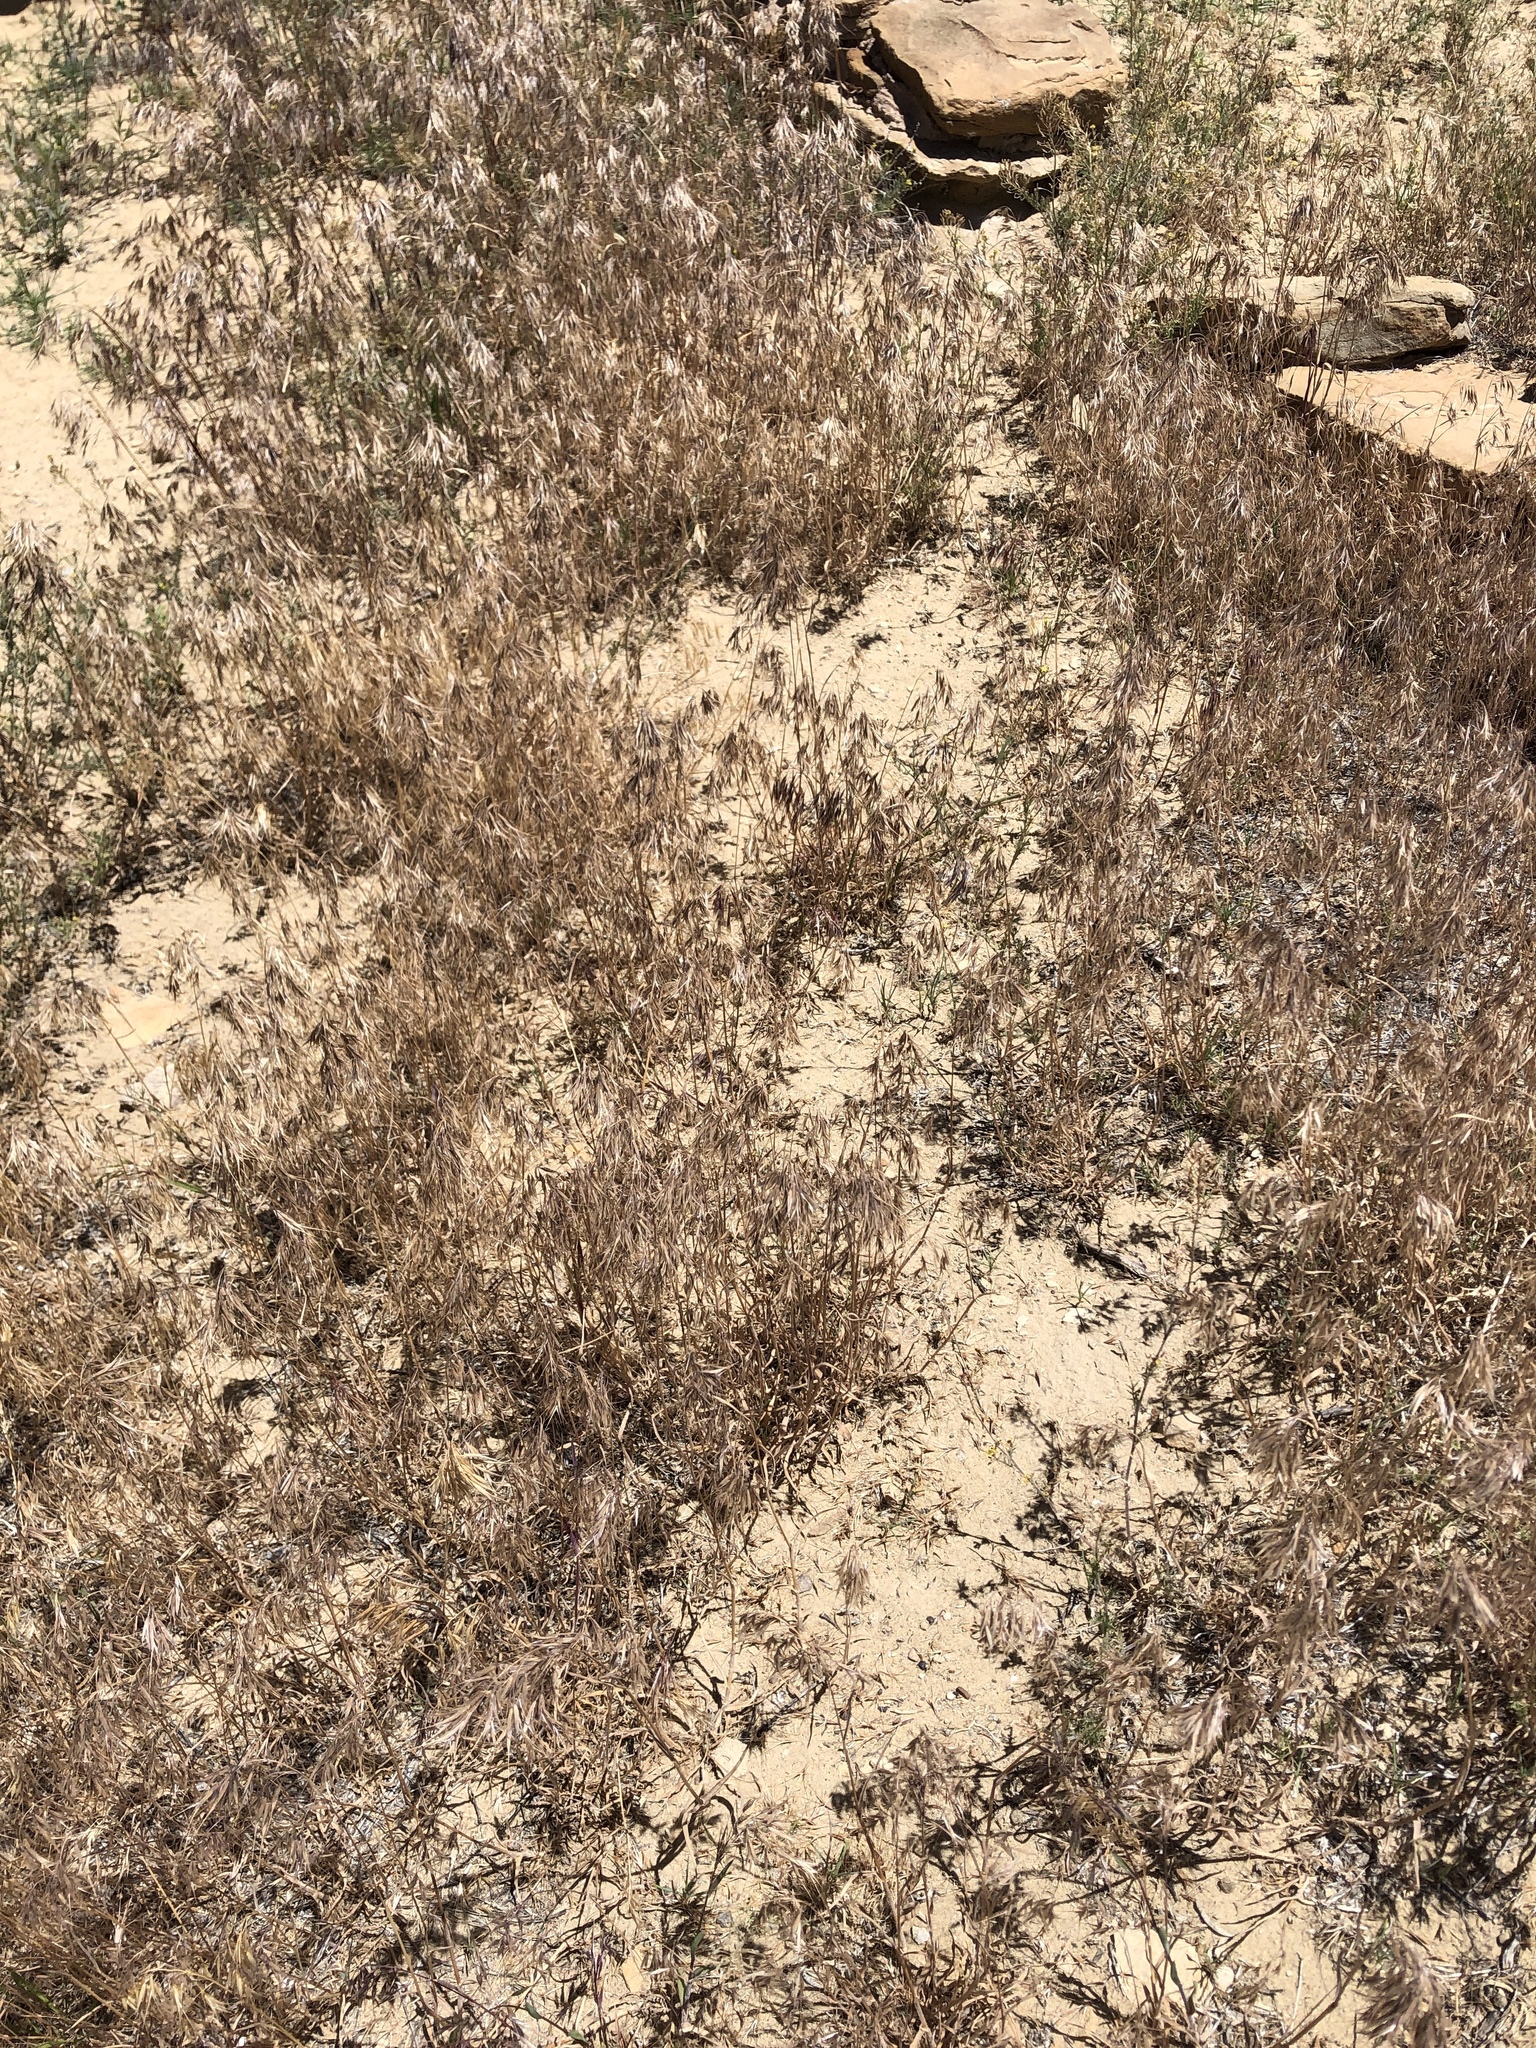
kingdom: Plantae
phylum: Tracheophyta
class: Liliopsida
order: Poales
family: Poaceae
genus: Bromus
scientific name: Bromus tectorum
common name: Cheatgrass
